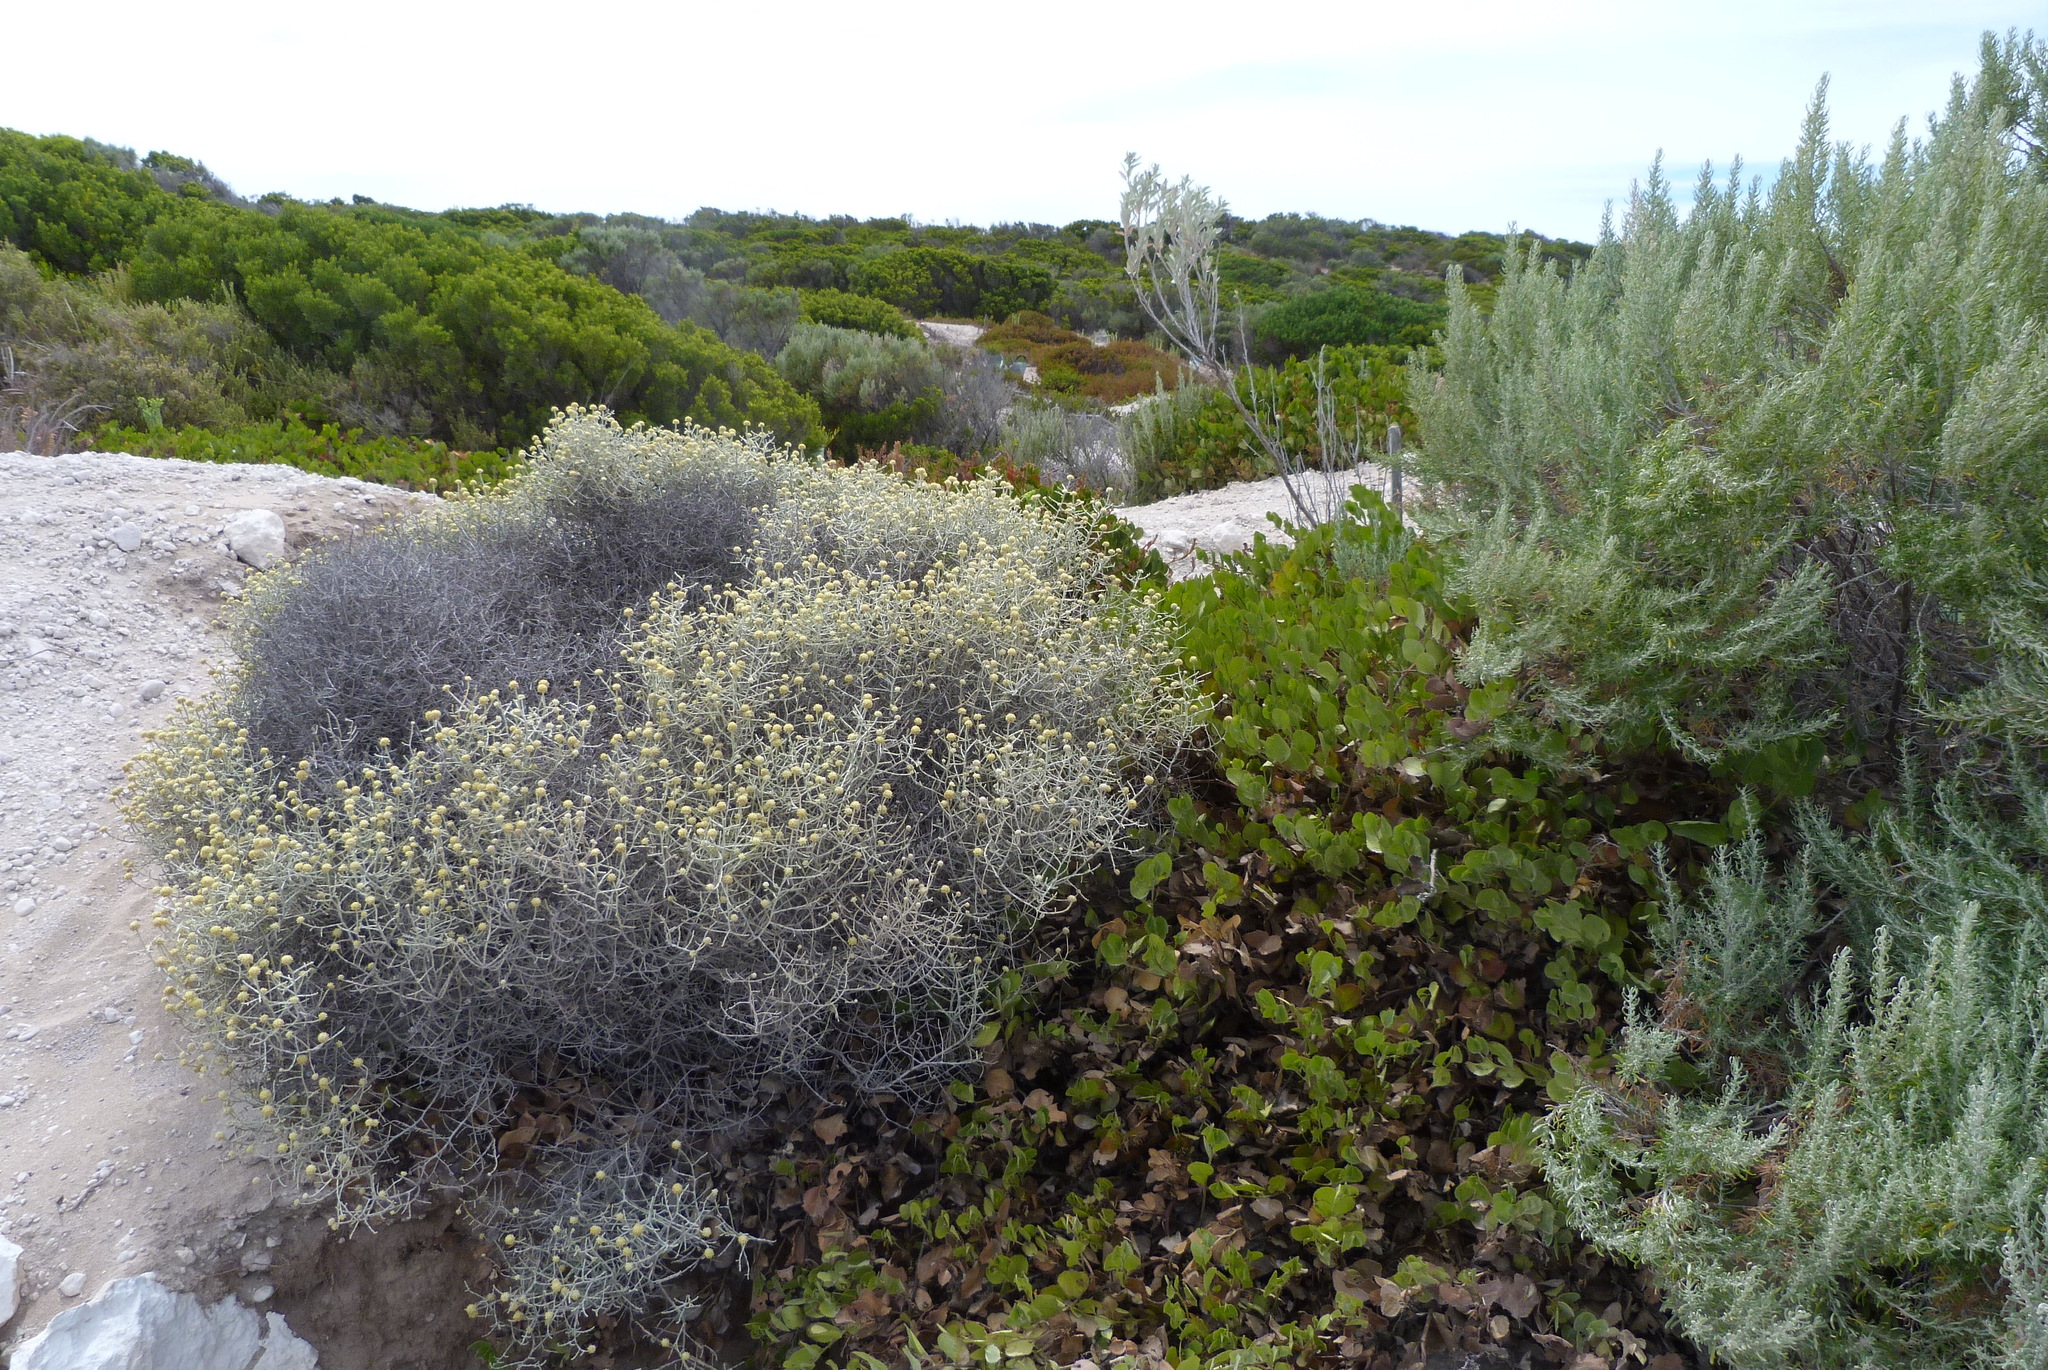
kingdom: Plantae
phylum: Tracheophyta
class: Magnoliopsida
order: Asterales
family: Asteraceae
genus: Calocephalus
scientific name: Calocephalus brownii
